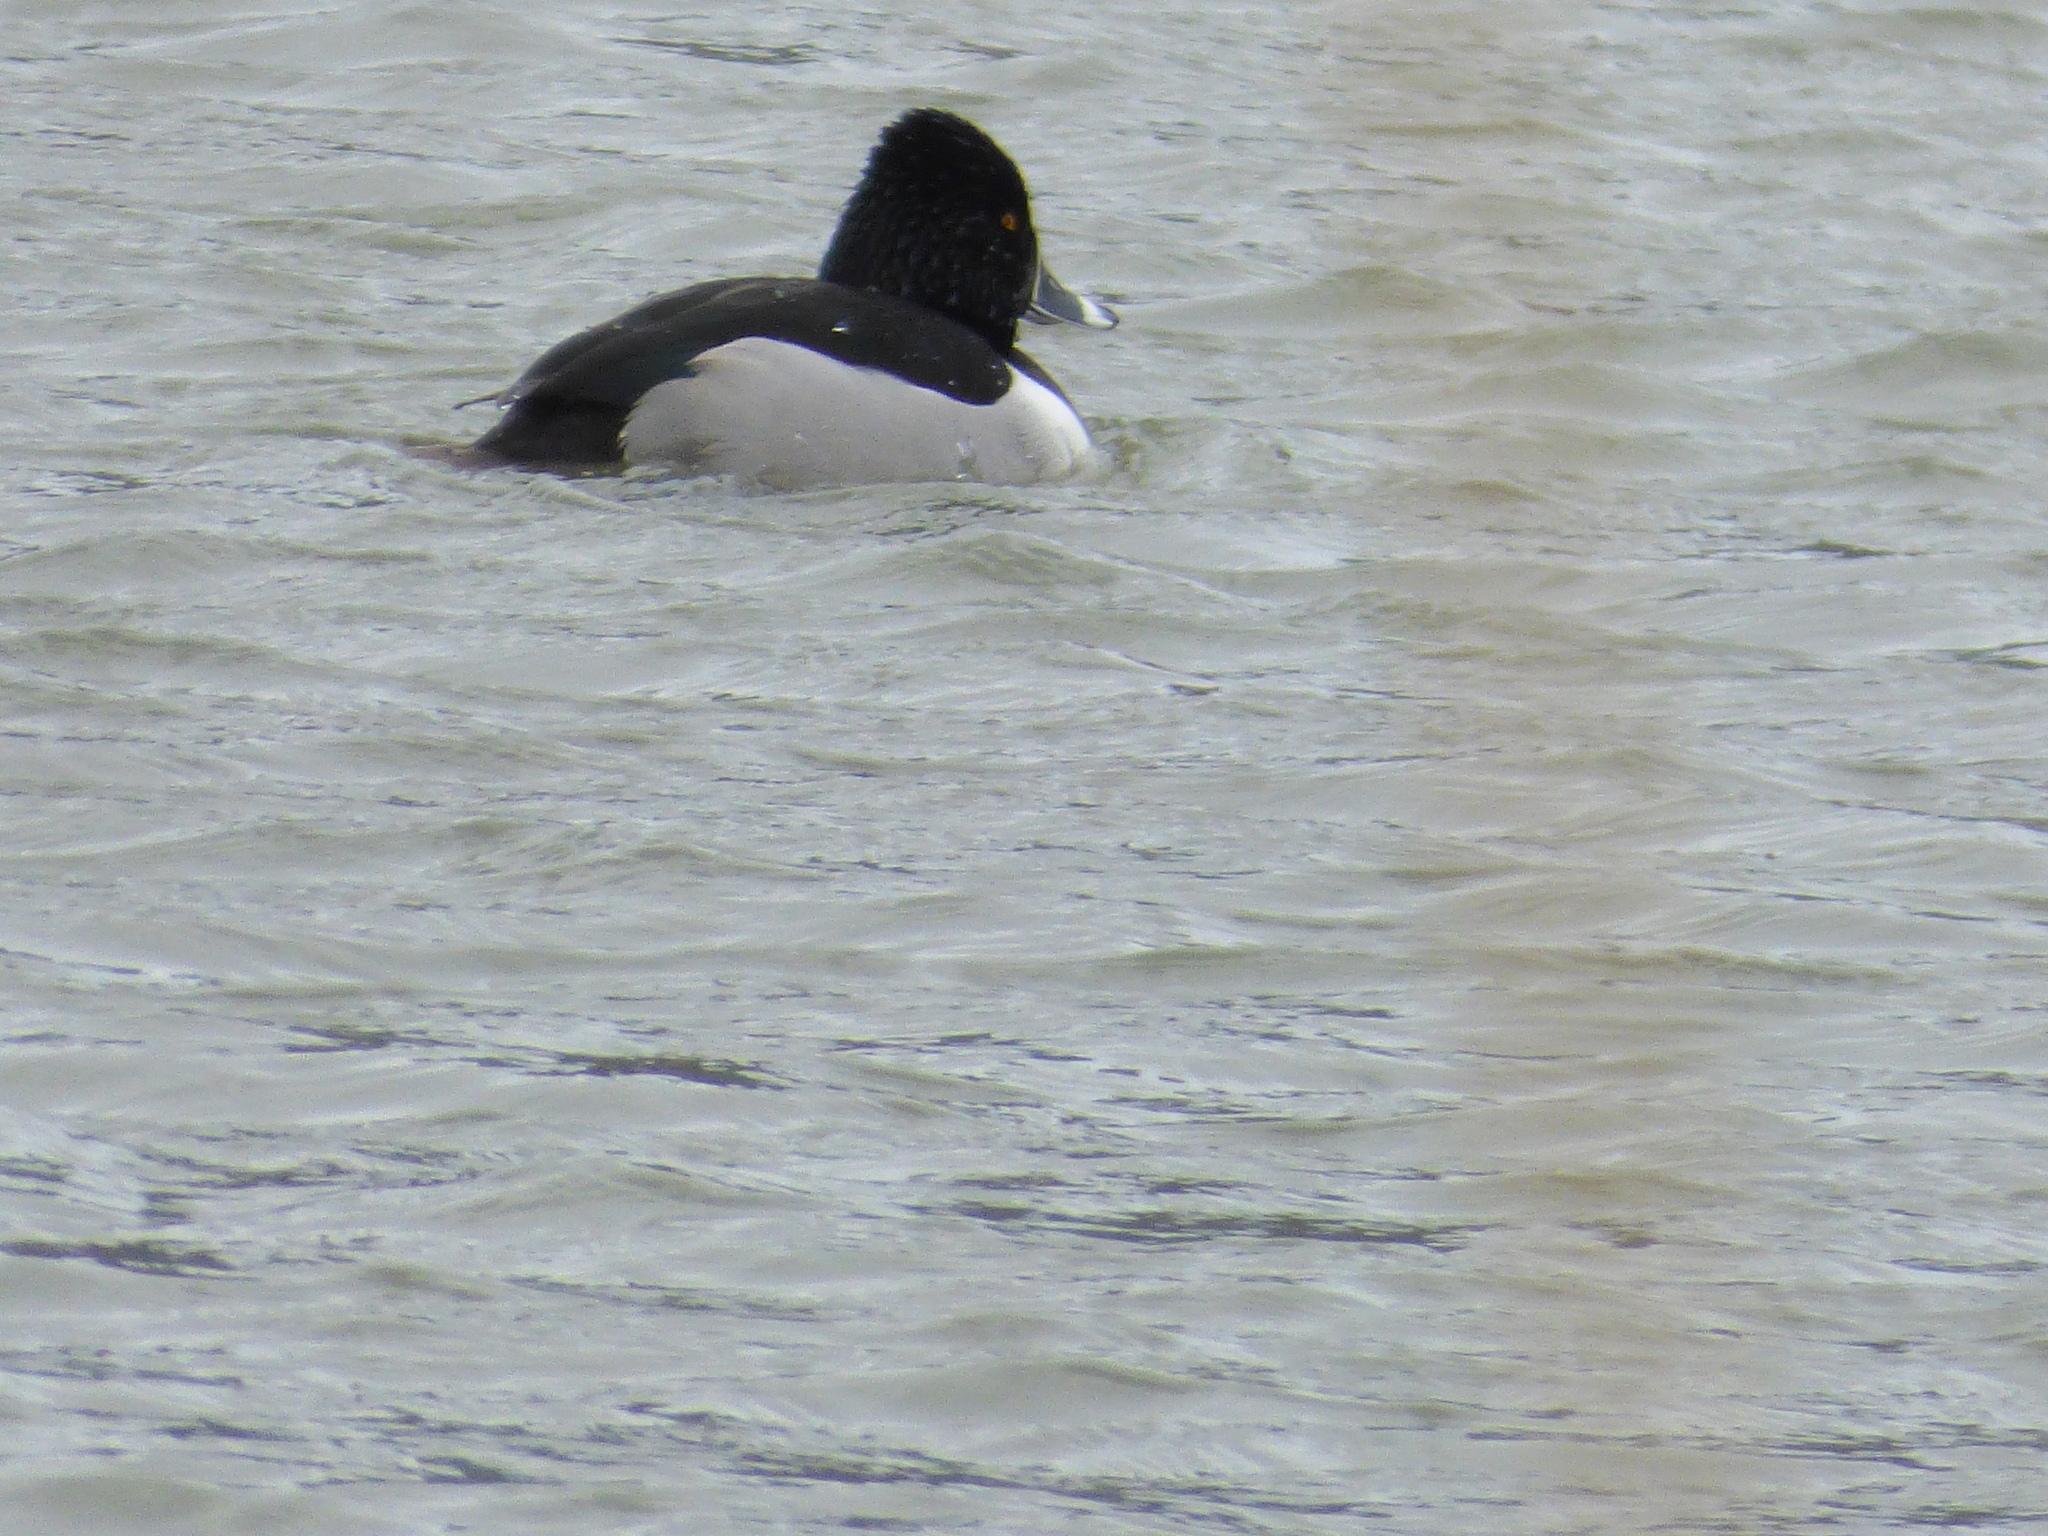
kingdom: Animalia
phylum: Chordata
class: Aves
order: Anseriformes
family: Anatidae
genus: Aythya
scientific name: Aythya collaris
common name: Ring-necked duck
